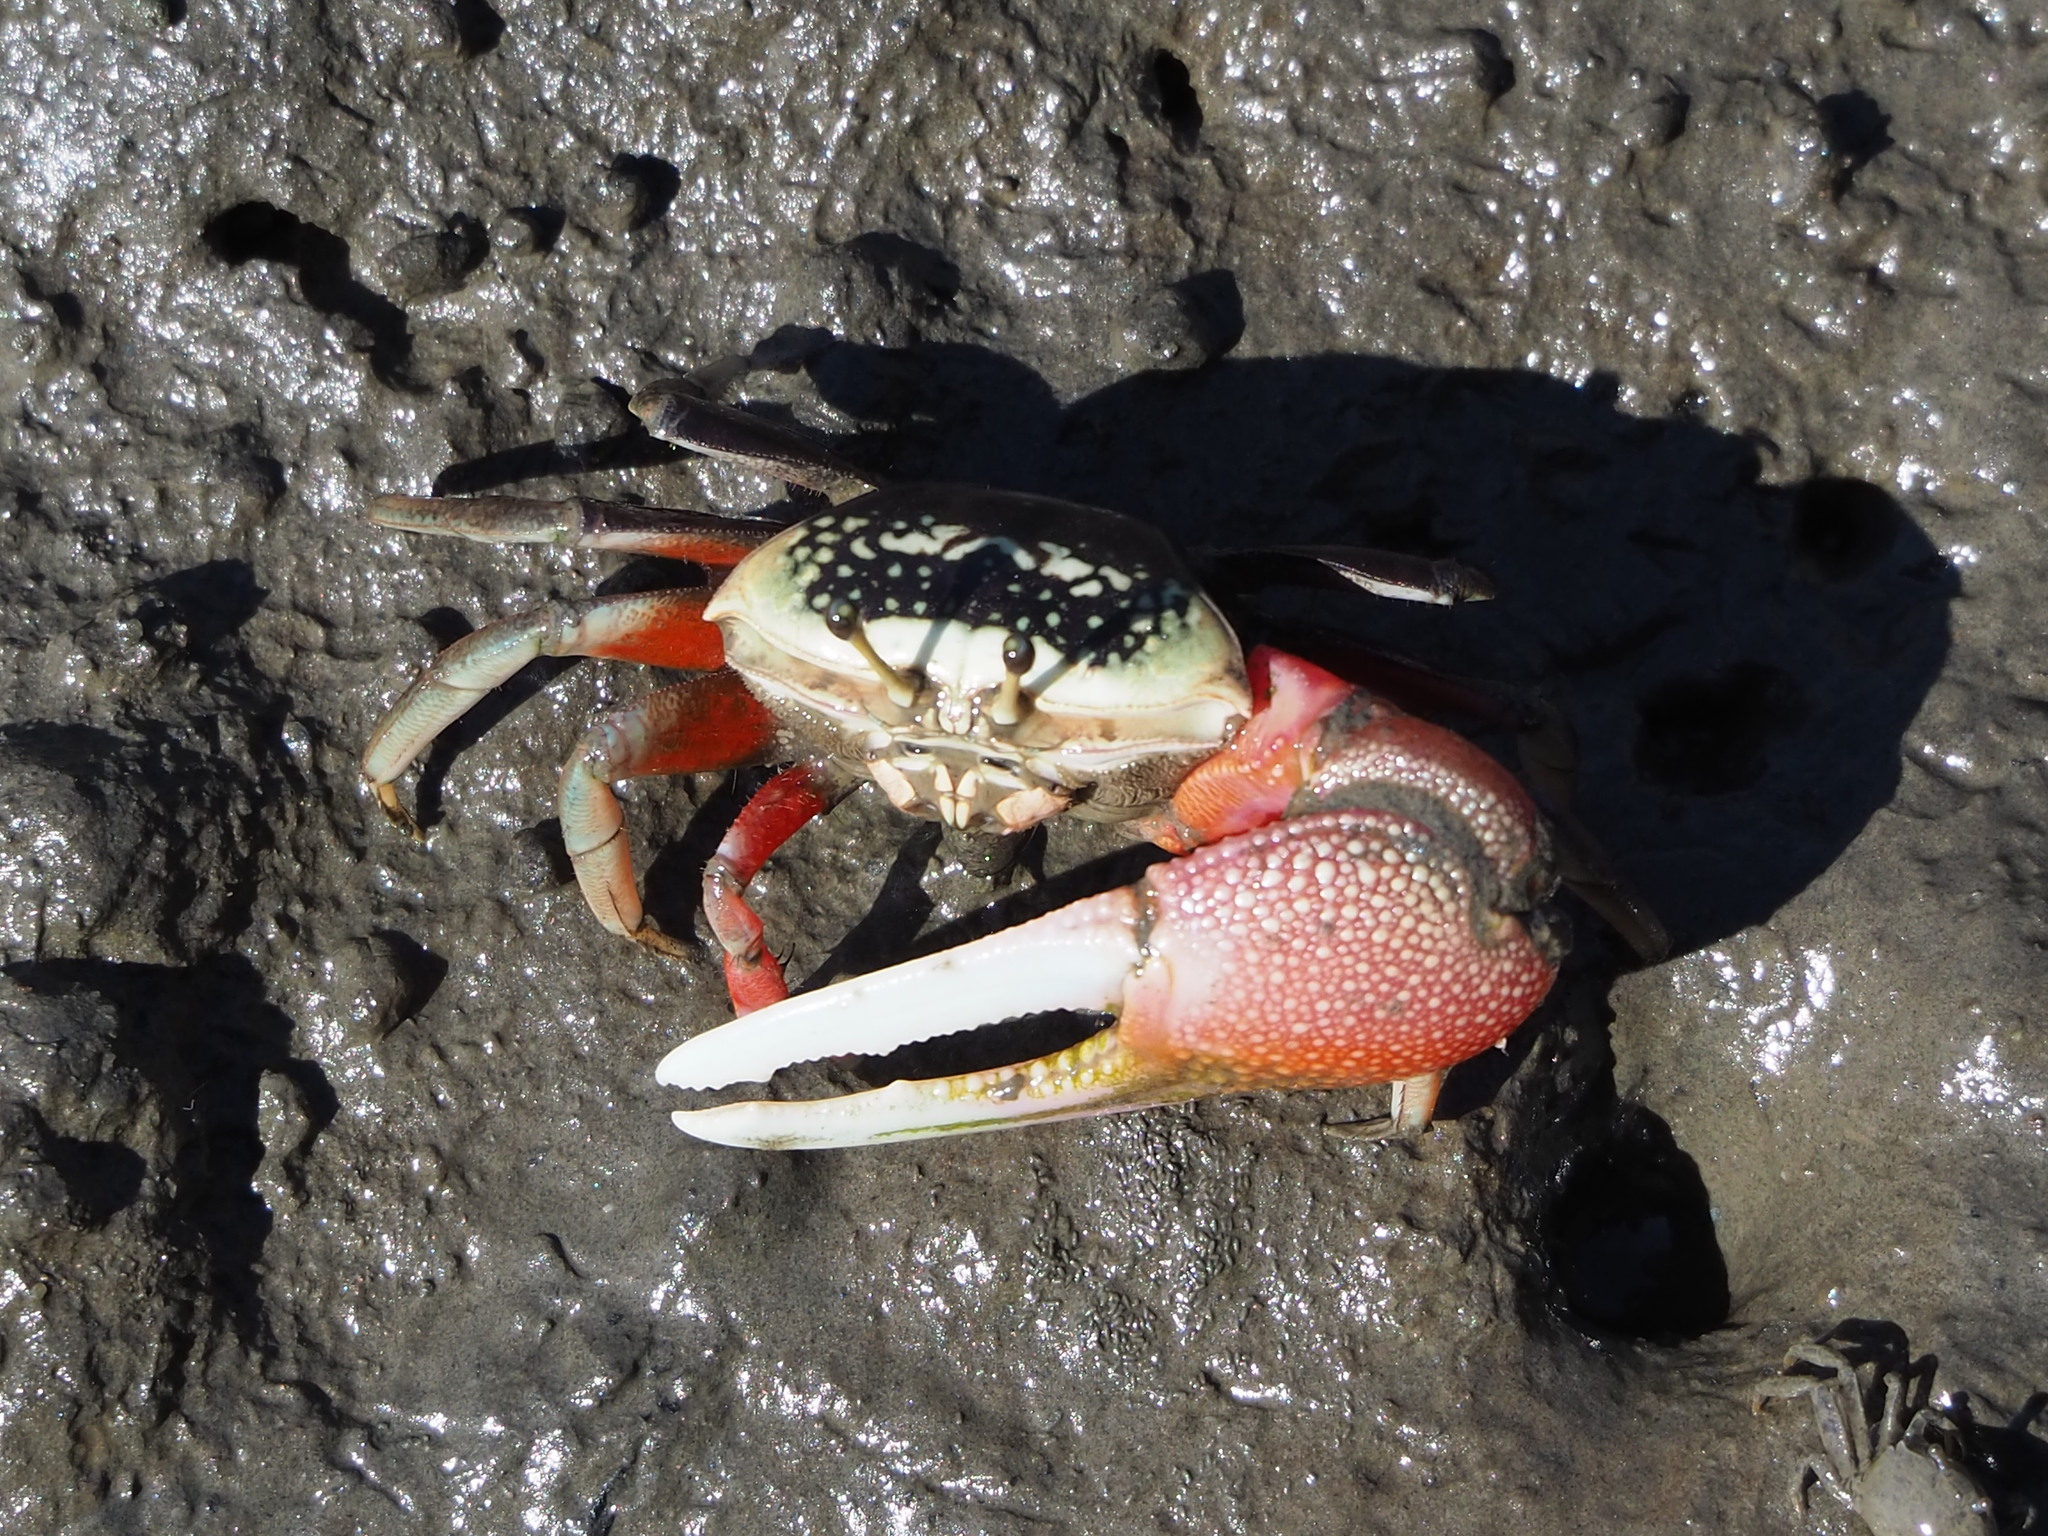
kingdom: Animalia
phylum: Arthropoda
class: Malacostraca
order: Decapoda
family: Ocypodidae
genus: Tubuca
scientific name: Tubuca arcuata
